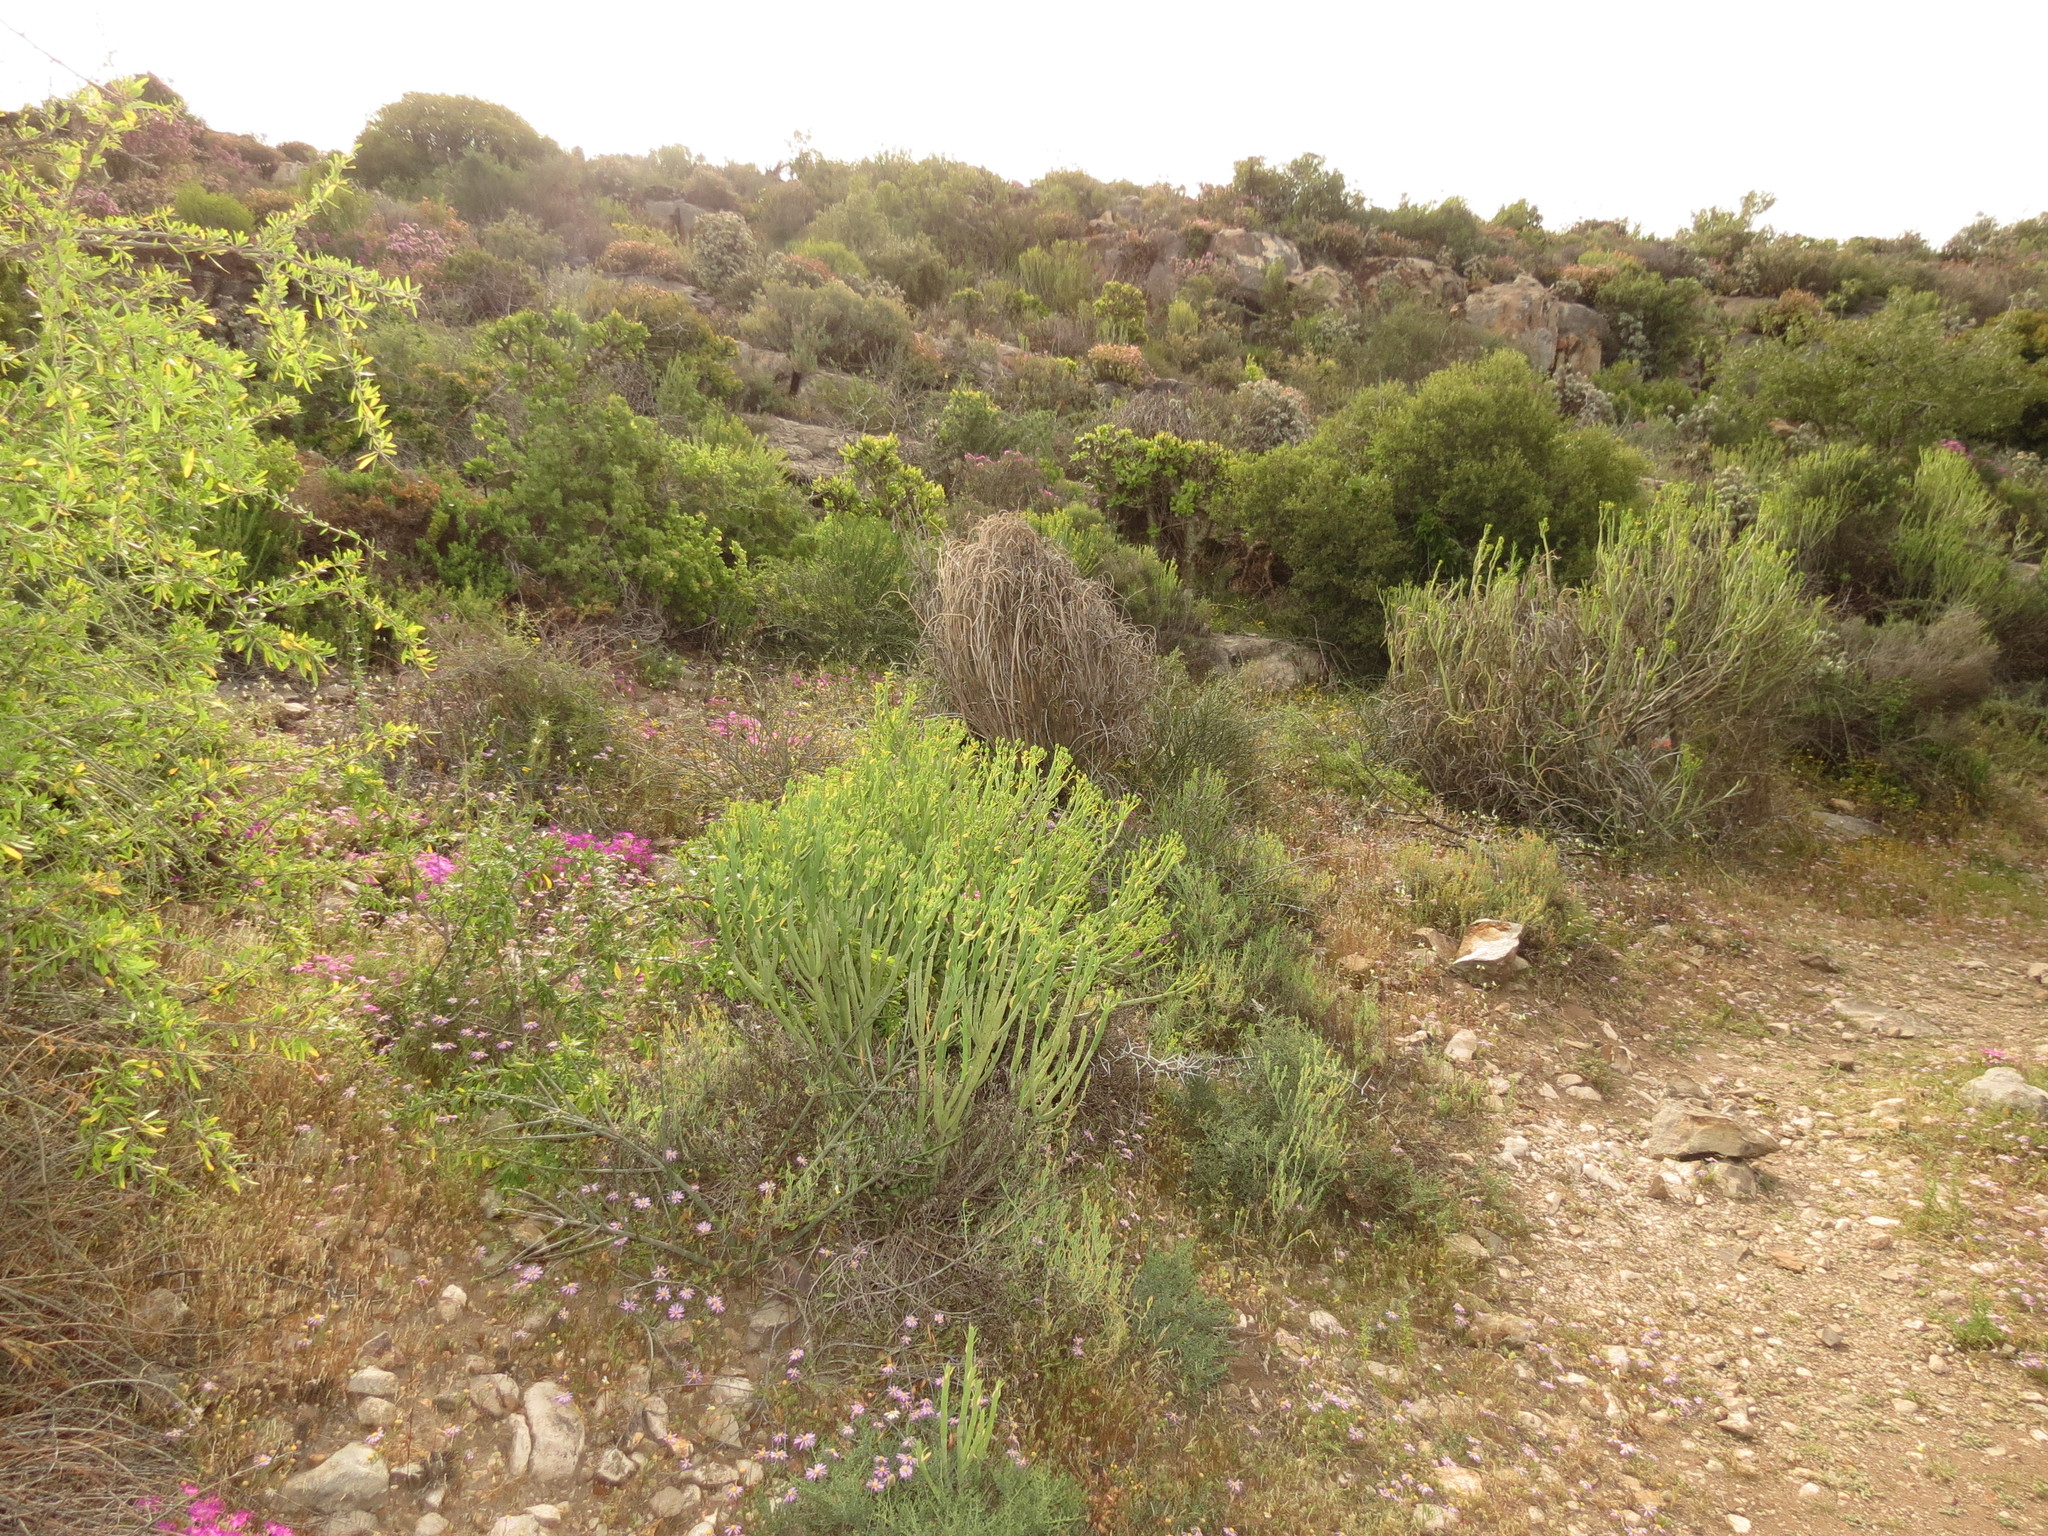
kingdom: Plantae
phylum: Tracheophyta
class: Magnoliopsida
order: Malpighiales
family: Euphorbiaceae
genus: Euphorbia
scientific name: Euphorbia mauritanica
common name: Jackal's-food
